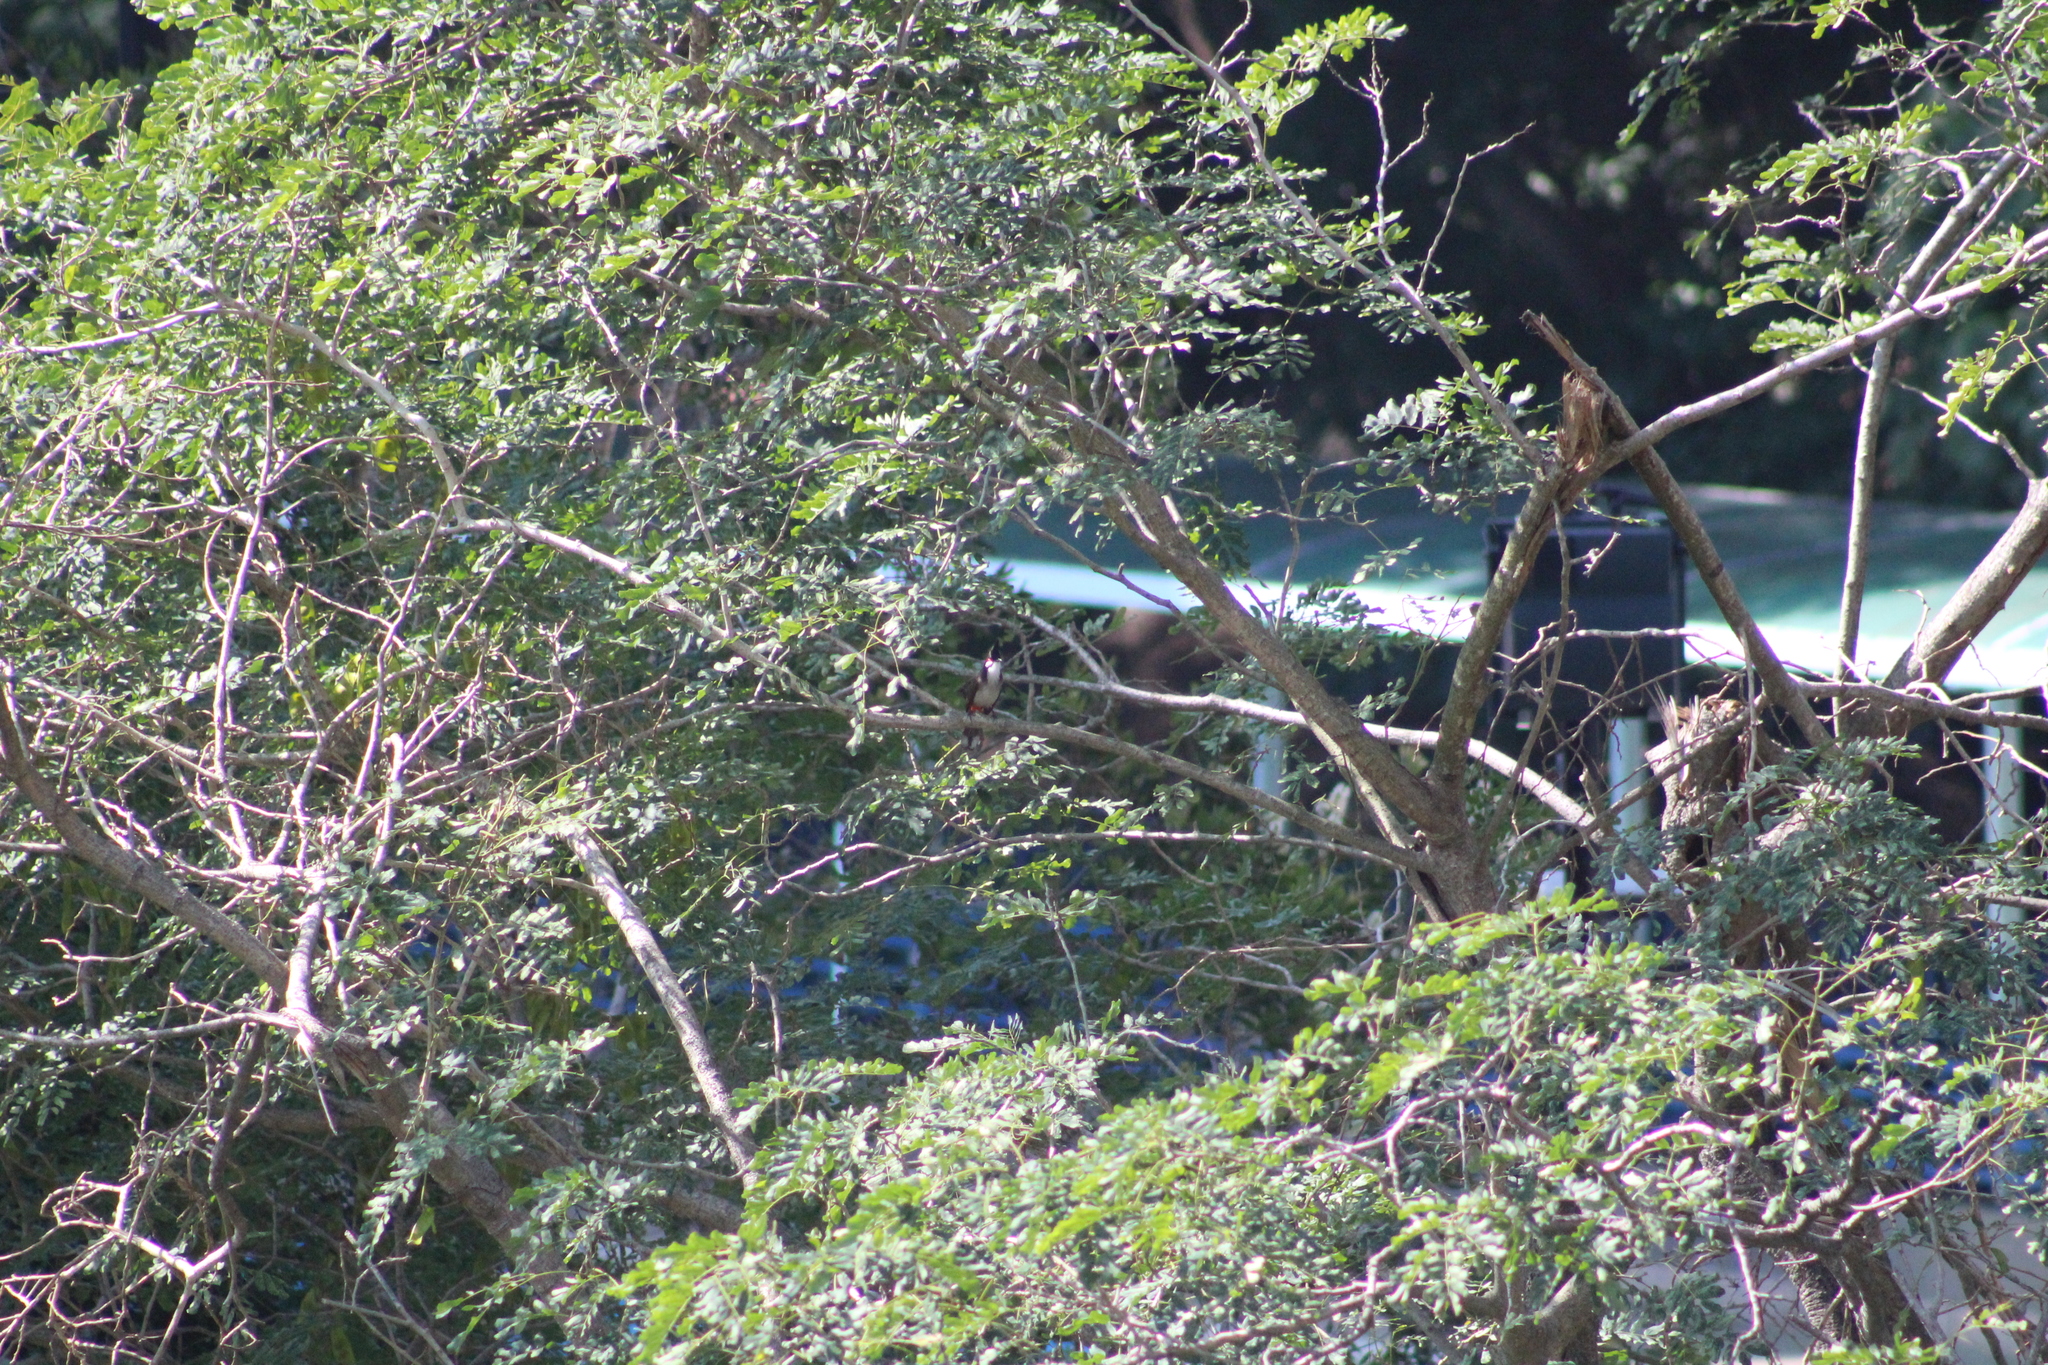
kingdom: Animalia
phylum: Chordata
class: Aves
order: Passeriformes
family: Pycnonotidae
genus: Pycnonotus
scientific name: Pycnonotus jocosus
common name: Red-whiskered bulbul
